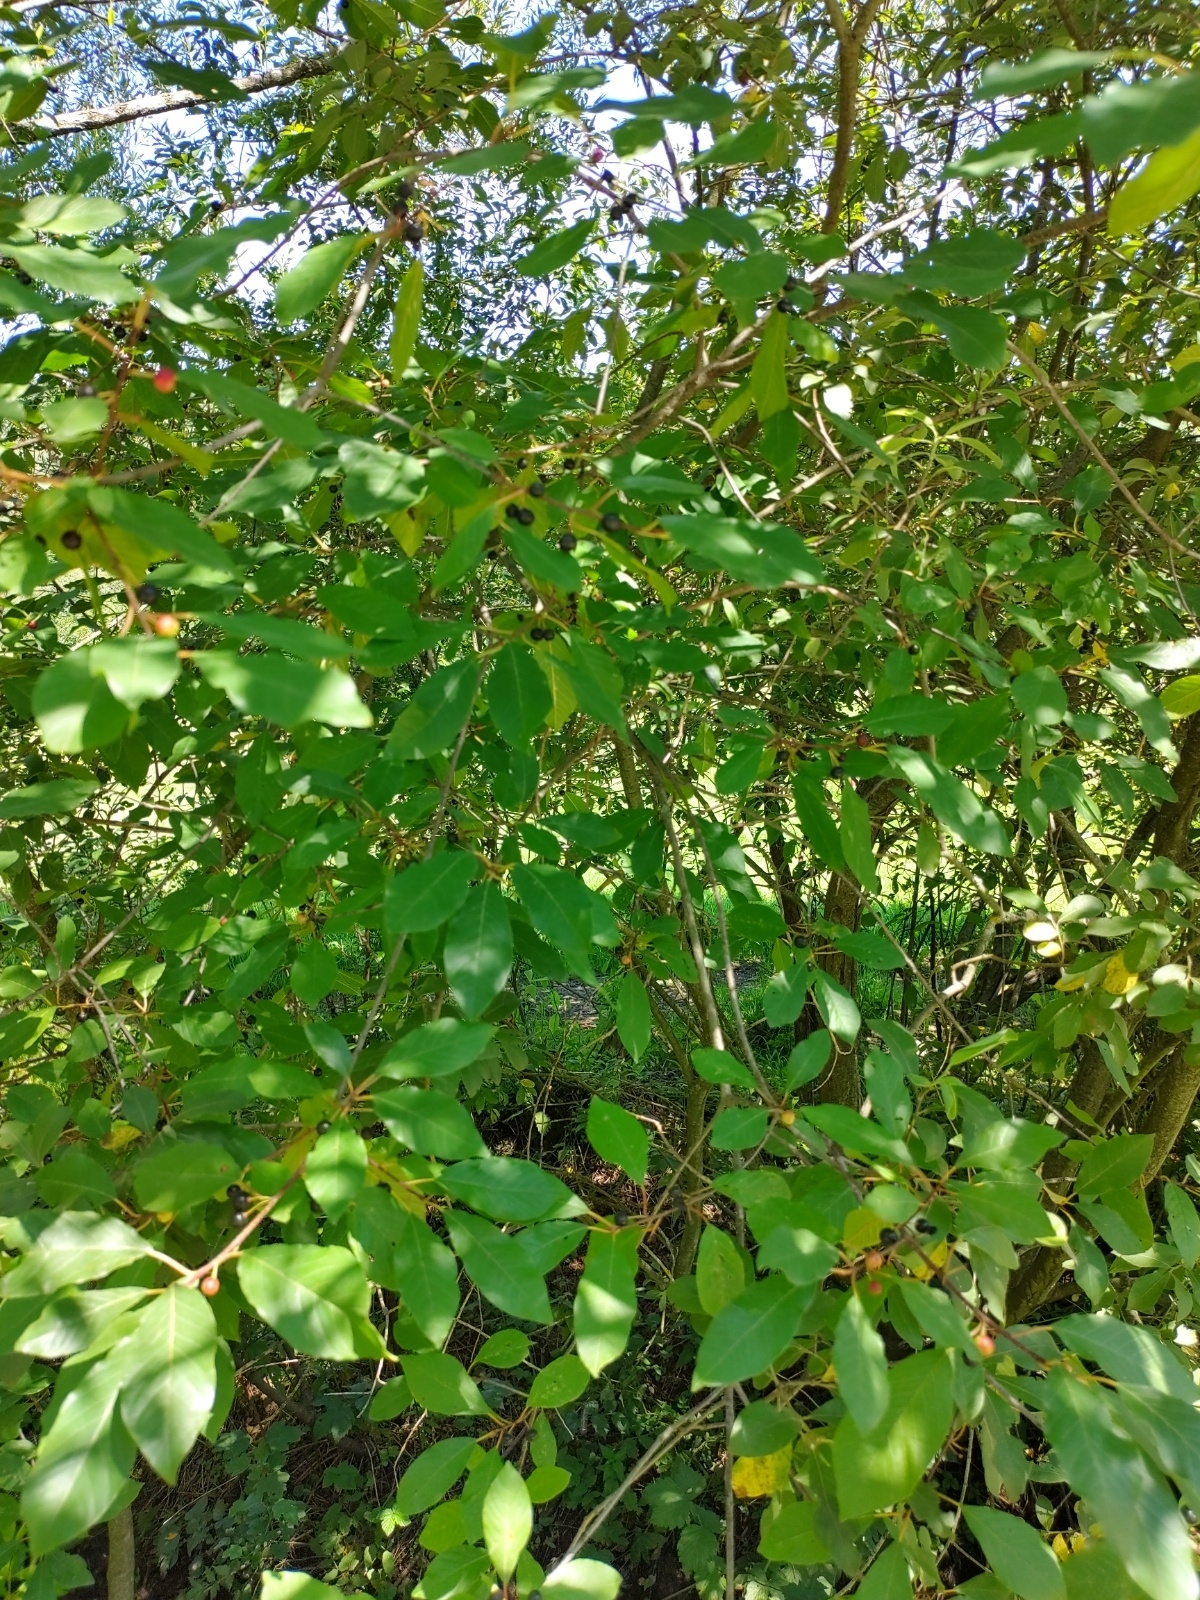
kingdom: Plantae
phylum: Tracheophyta
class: Magnoliopsida
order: Rosales
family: Rhamnaceae
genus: Frangula
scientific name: Frangula alnus
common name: Alder buckthorn
